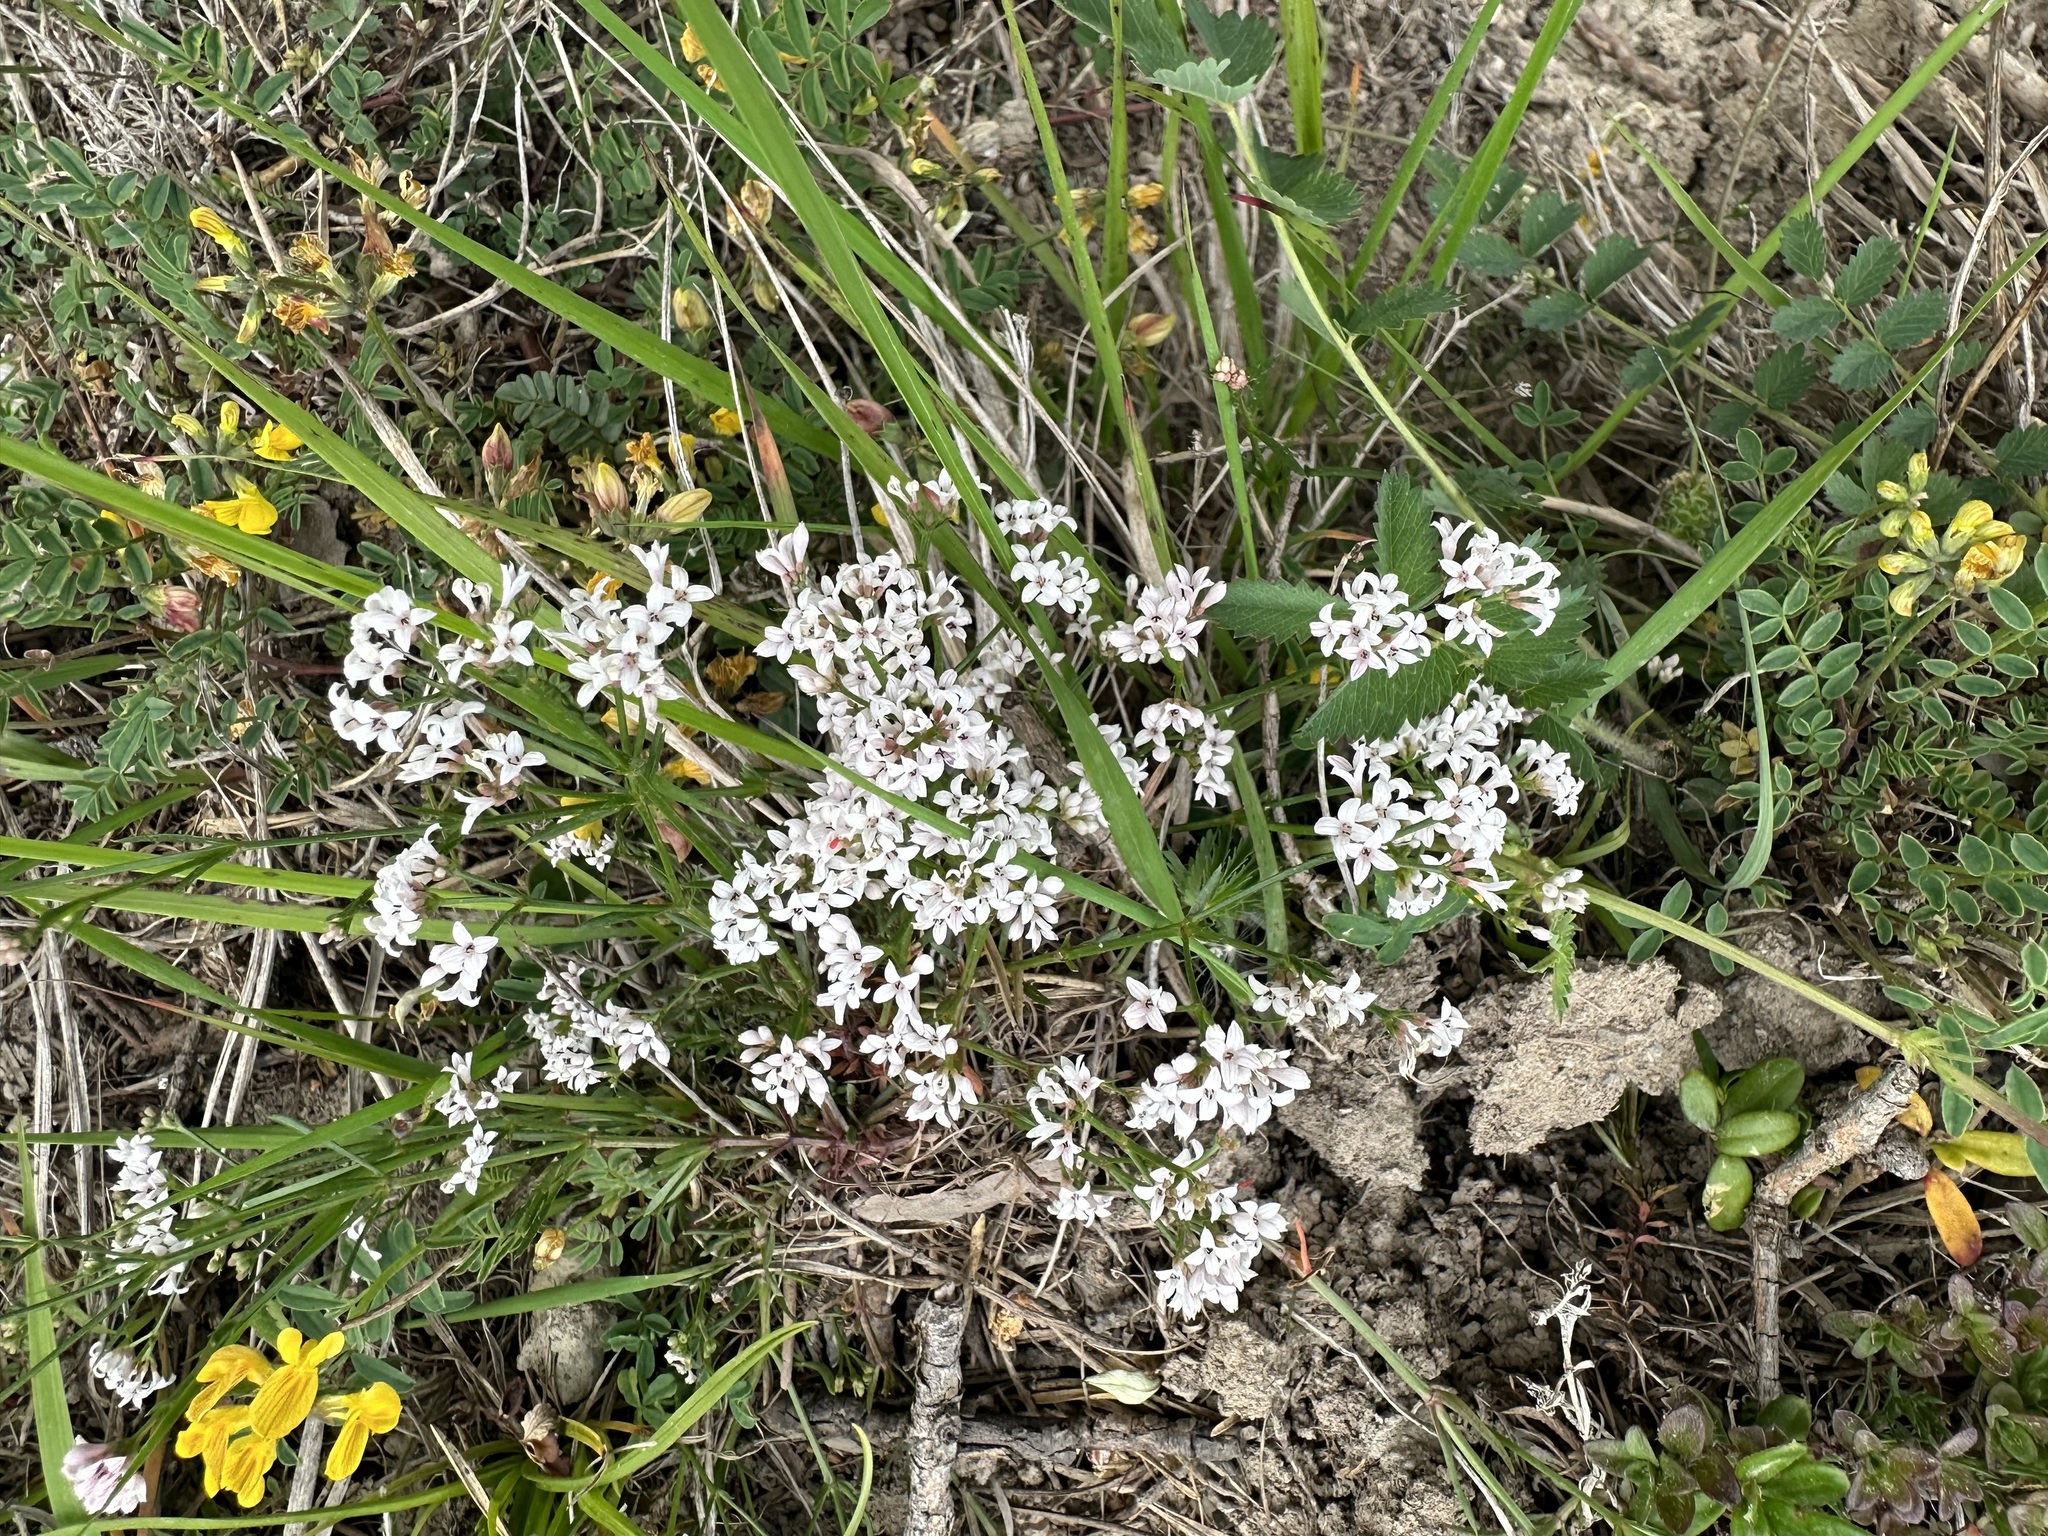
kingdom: Plantae
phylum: Tracheophyta
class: Magnoliopsida
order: Gentianales
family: Rubiaceae
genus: Cynanchica
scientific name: Cynanchica pyrenaica
